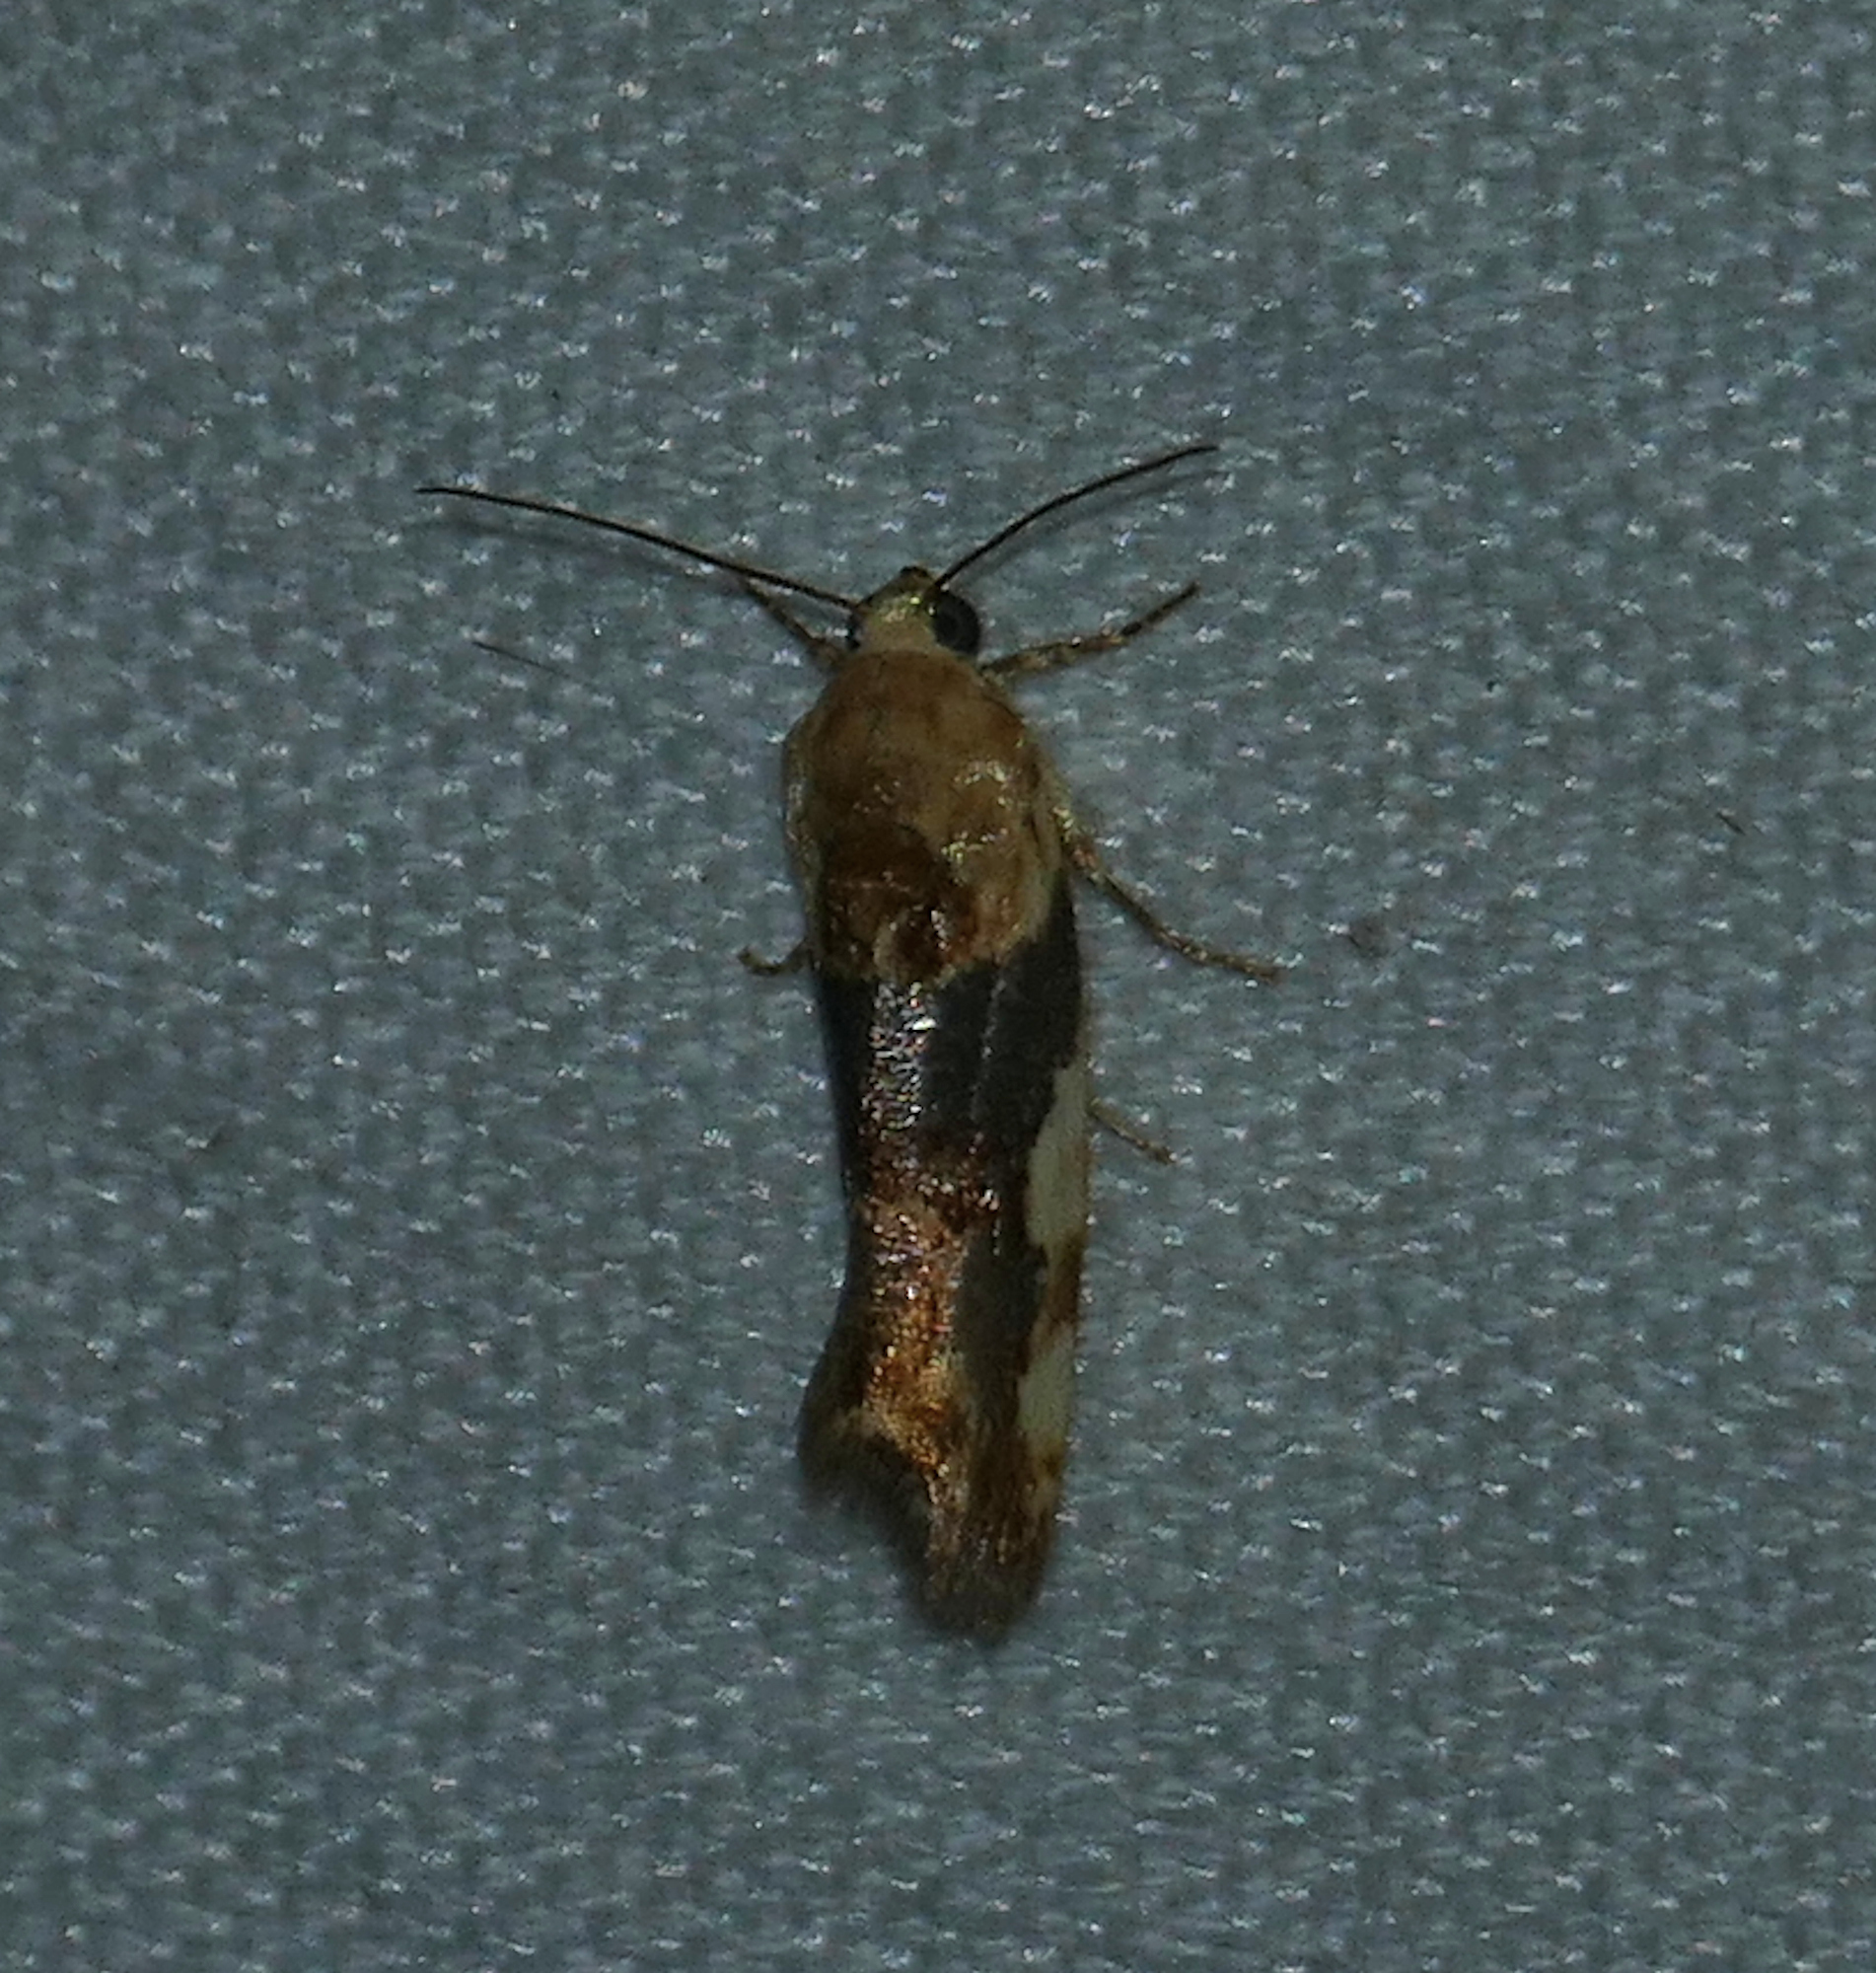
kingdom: Animalia
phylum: Arthropoda
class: Insecta
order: Lepidoptera
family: Noctuidae
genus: Acontia
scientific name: Acontia obatra
